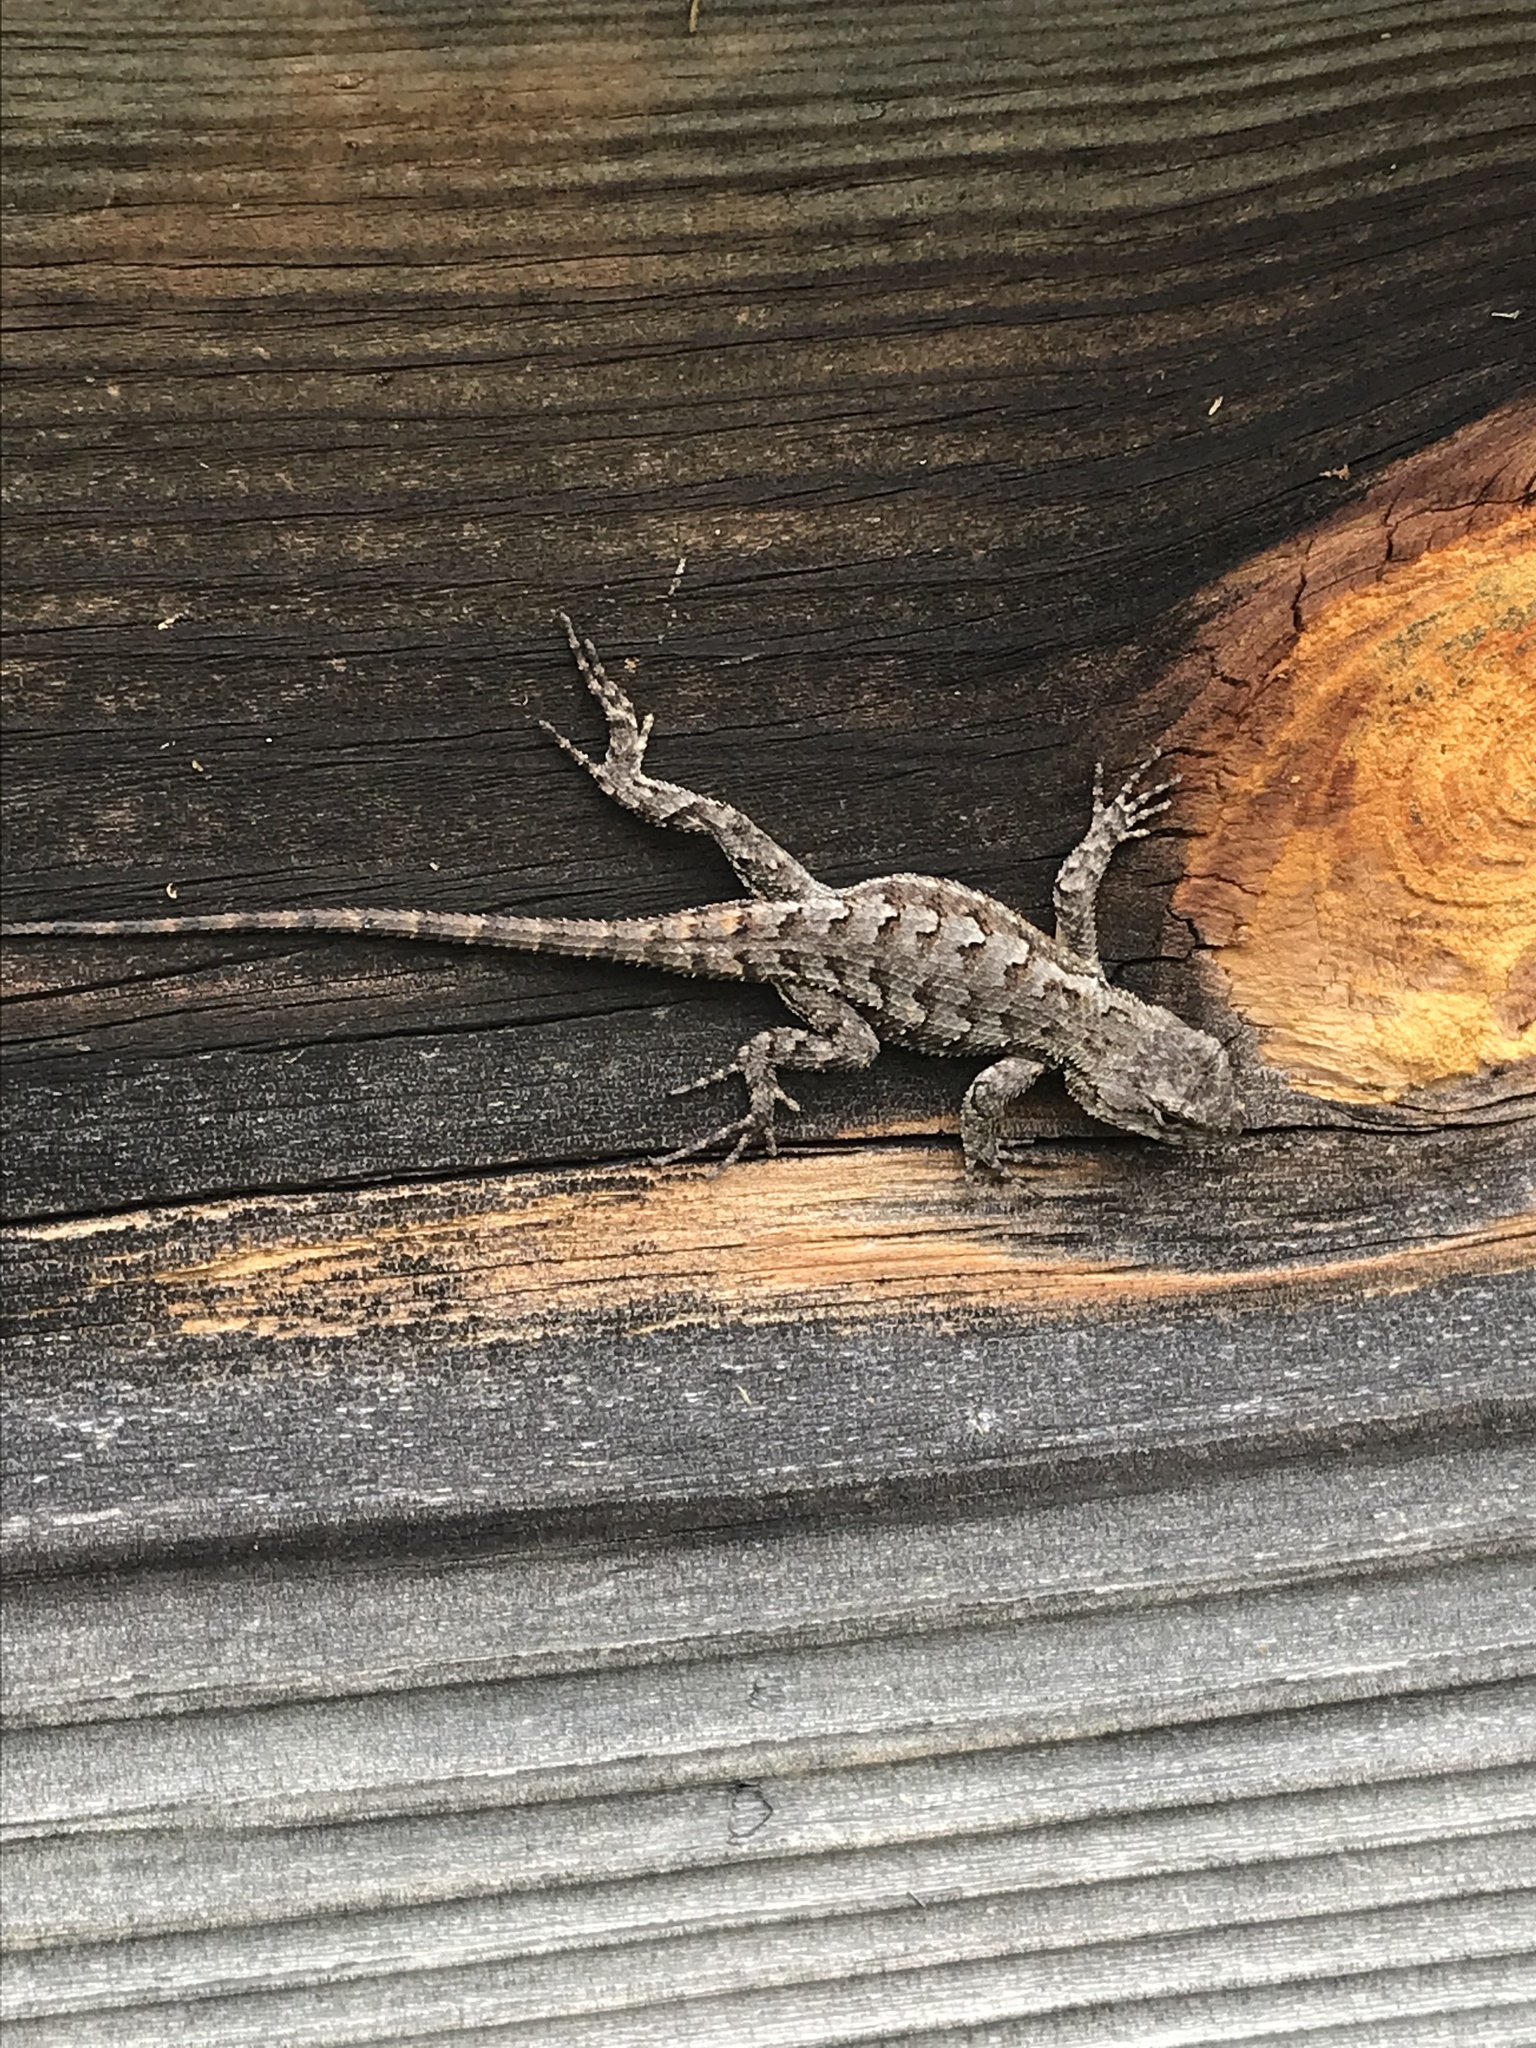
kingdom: Animalia
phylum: Chordata
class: Squamata
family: Phrynosomatidae
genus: Sceloporus
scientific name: Sceloporus undulatus
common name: Eastern fence lizard
